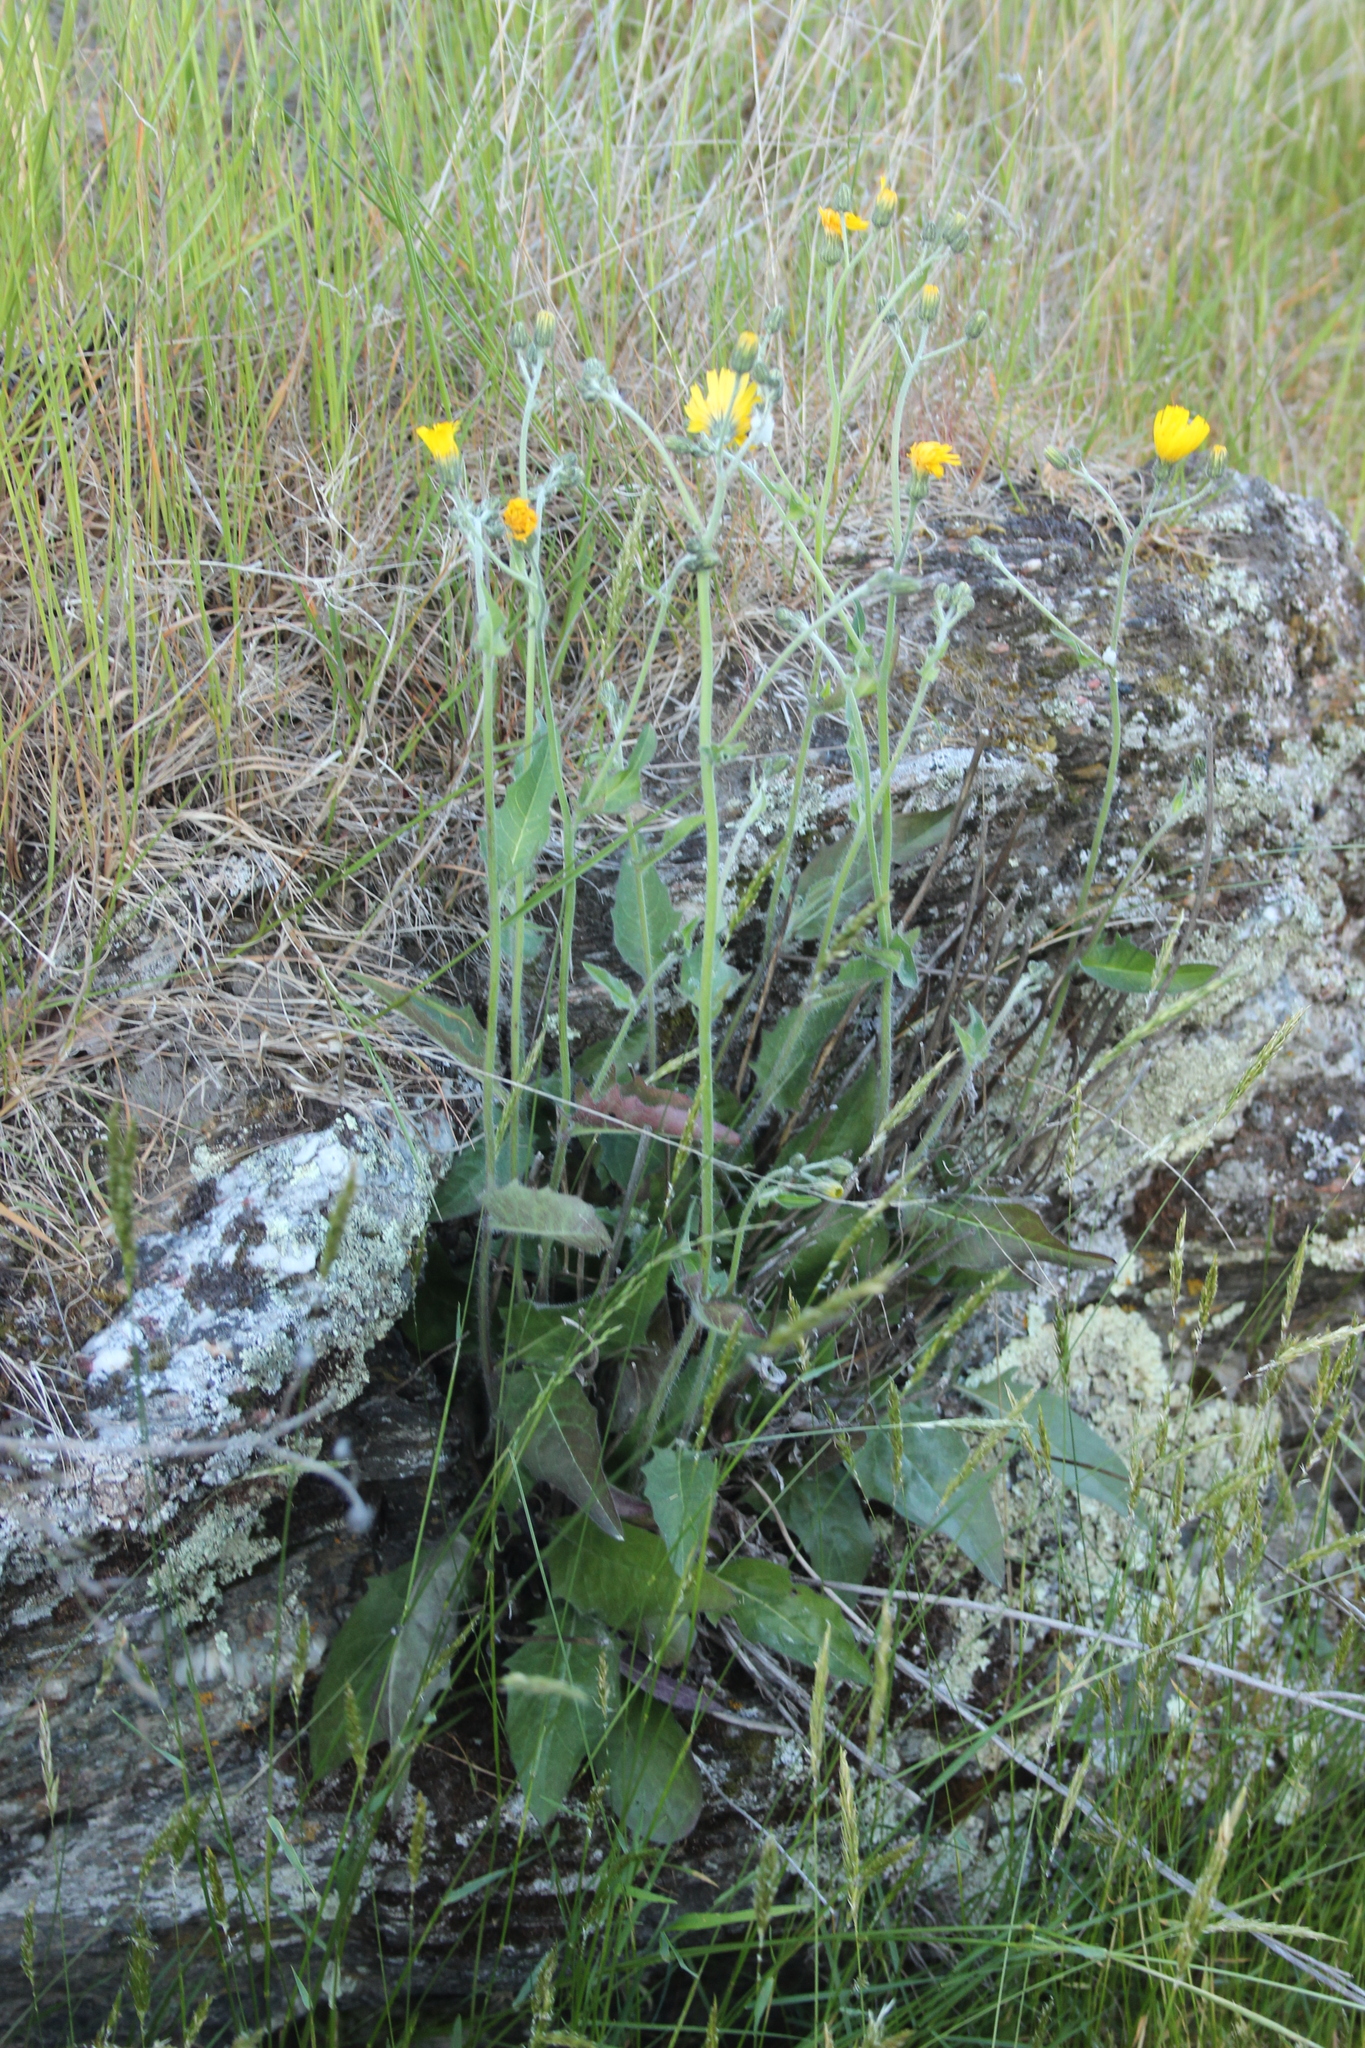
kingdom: Plantae
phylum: Tracheophyta
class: Magnoliopsida
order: Asterales
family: Asteraceae
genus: Hieracium
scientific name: Hieracium lepidulum
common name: Irregular-toothed hawkweed
